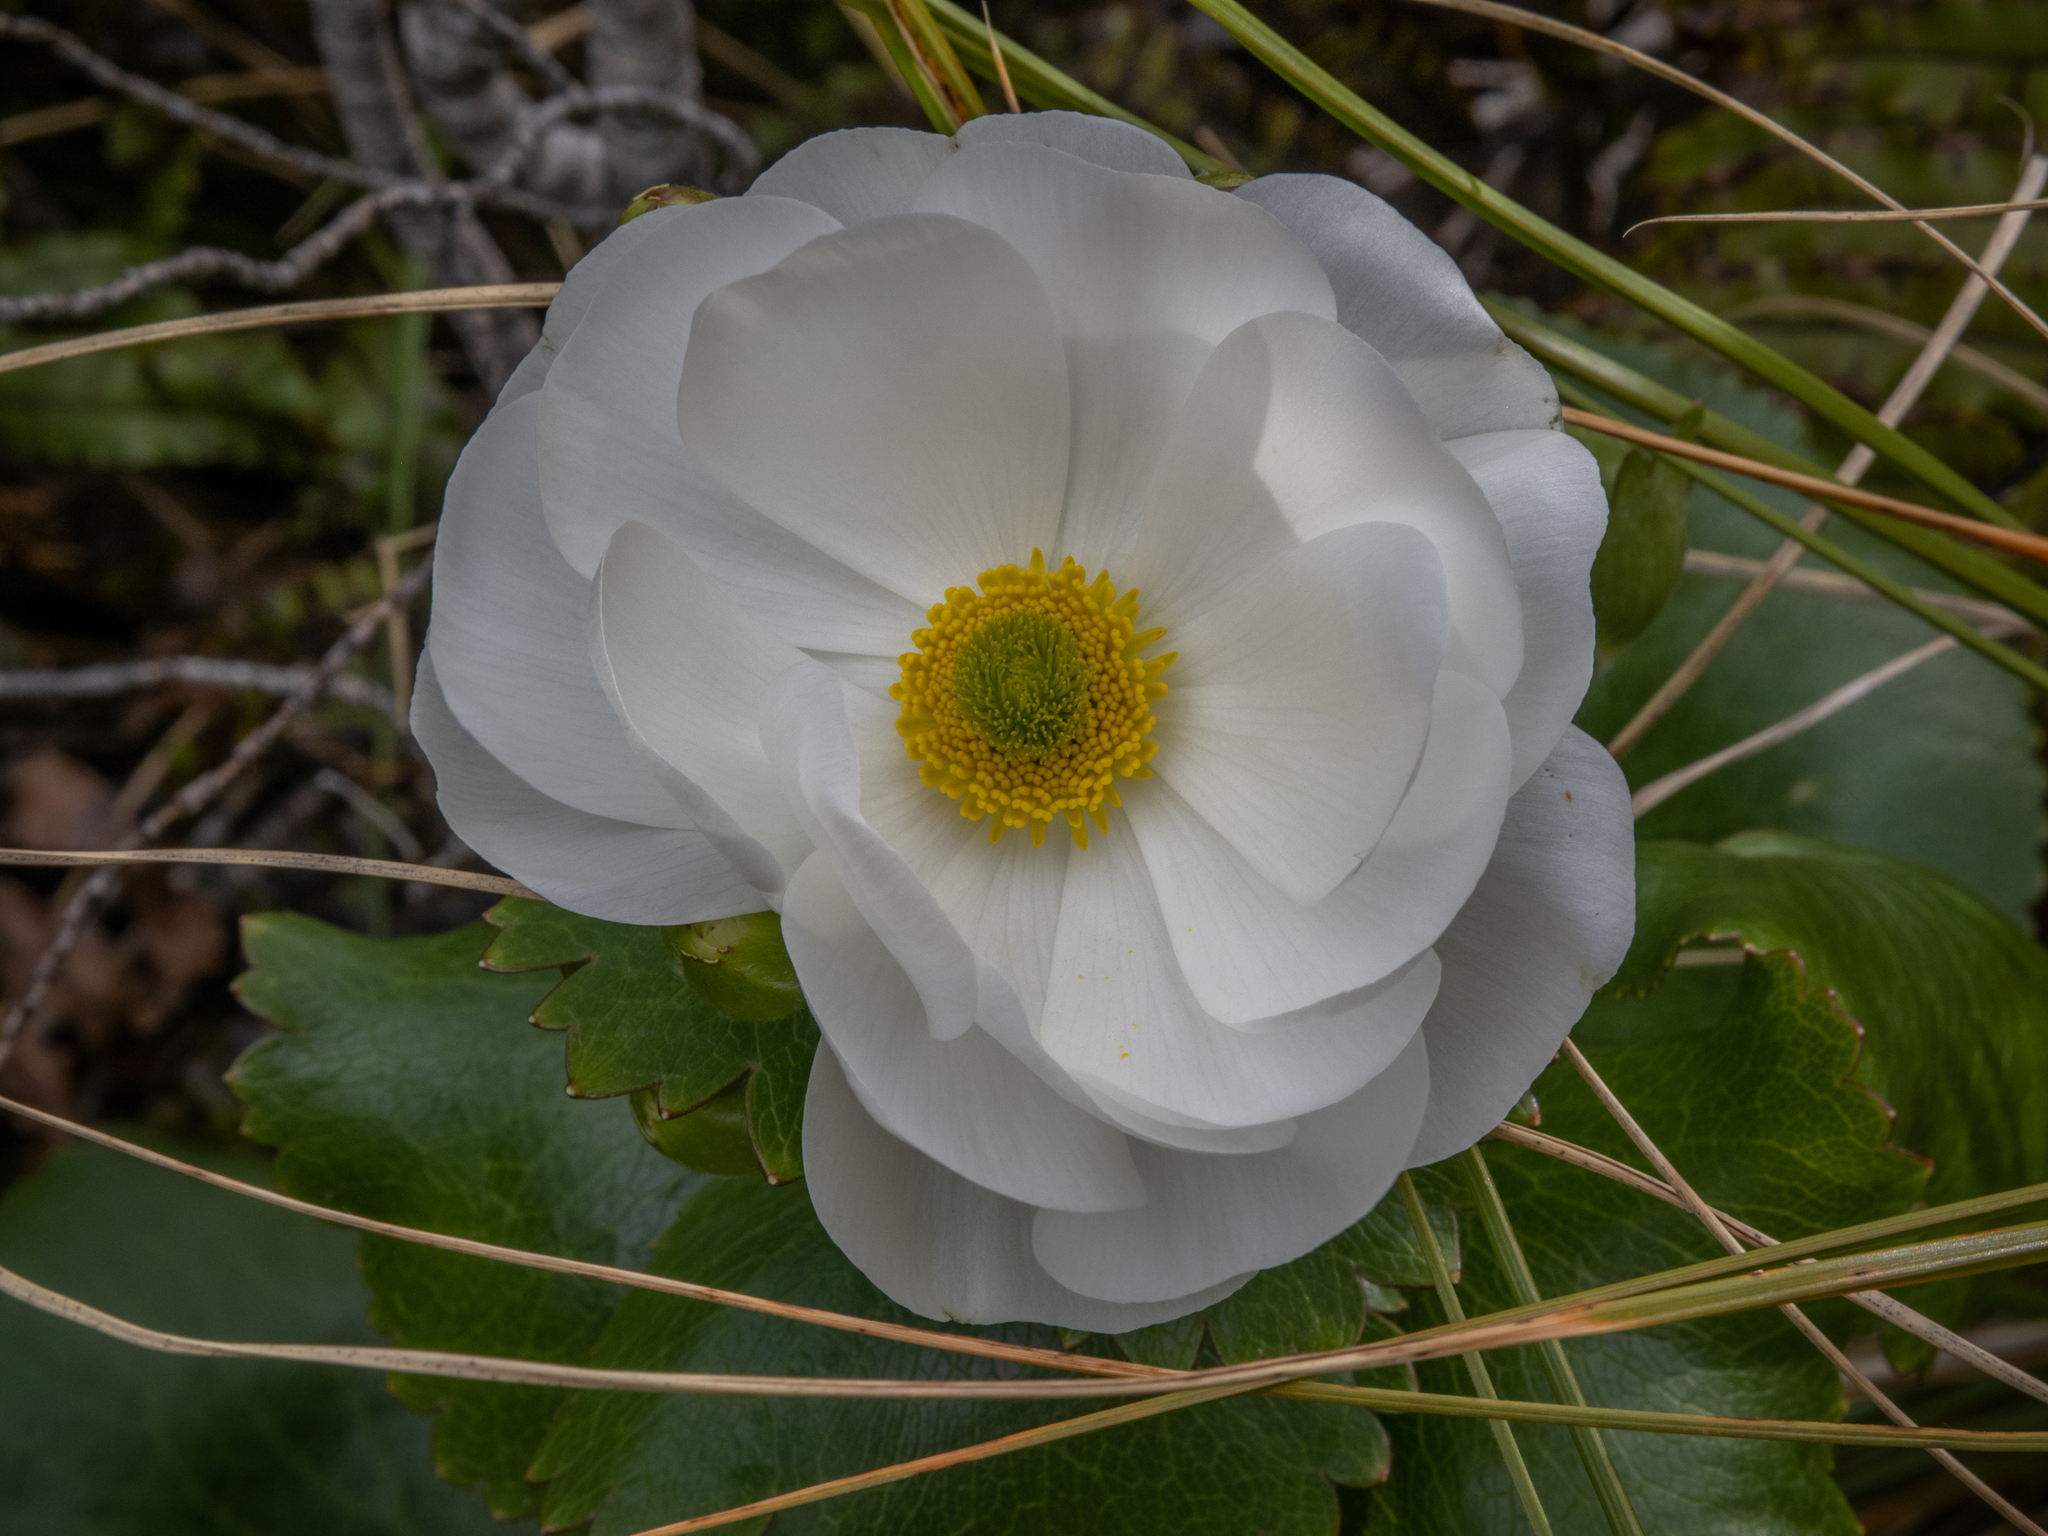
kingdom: Plantae
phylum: Tracheophyta
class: Magnoliopsida
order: Ranunculales
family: Ranunculaceae
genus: Ranunculus
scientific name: Ranunculus lyallii
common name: Mountain-lily
